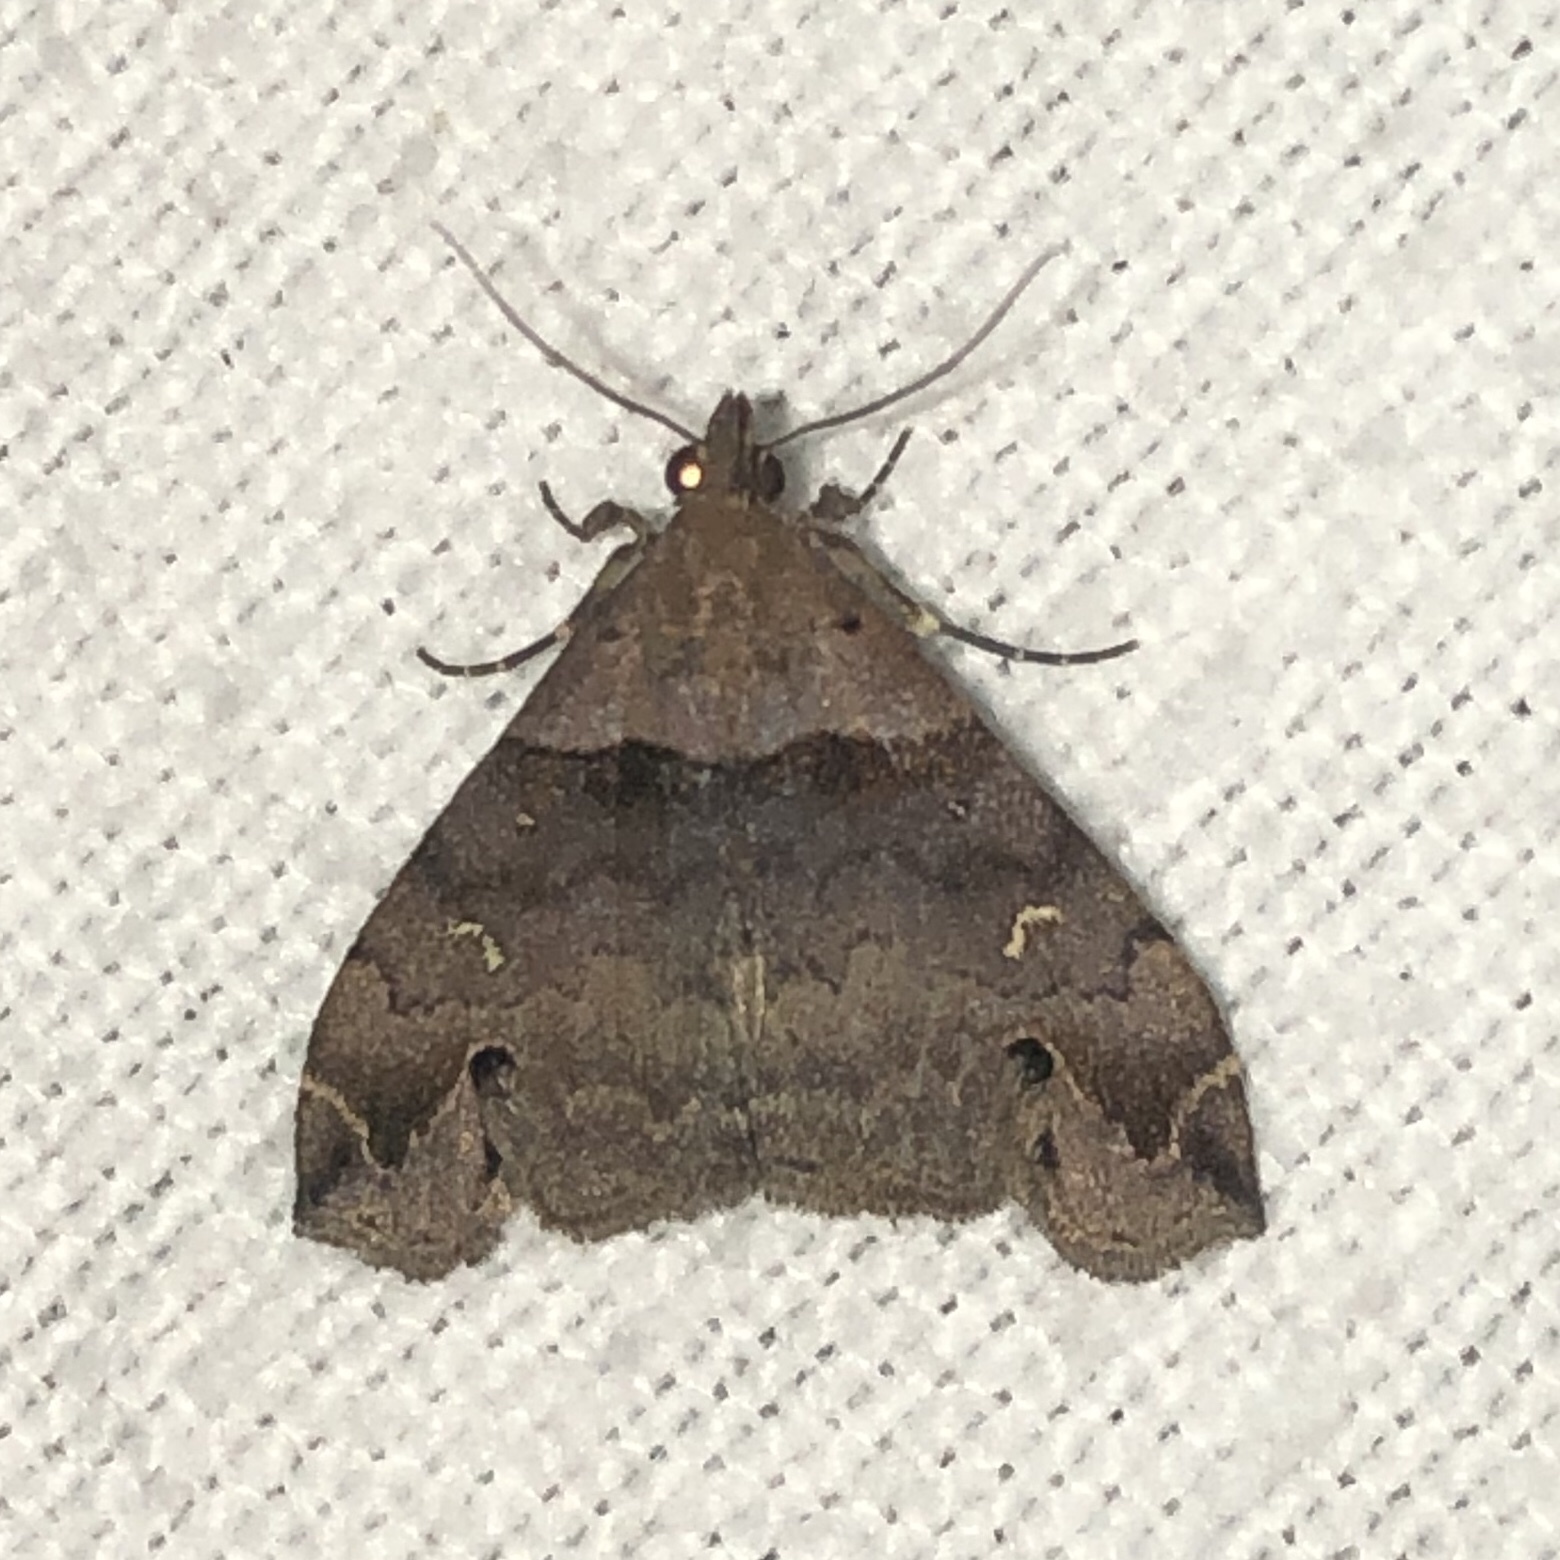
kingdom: Animalia
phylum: Arthropoda
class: Insecta
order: Lepidoptera
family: Erebidae
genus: Lascoria
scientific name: Lascoria ambigualis
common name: Ambiguous moth
